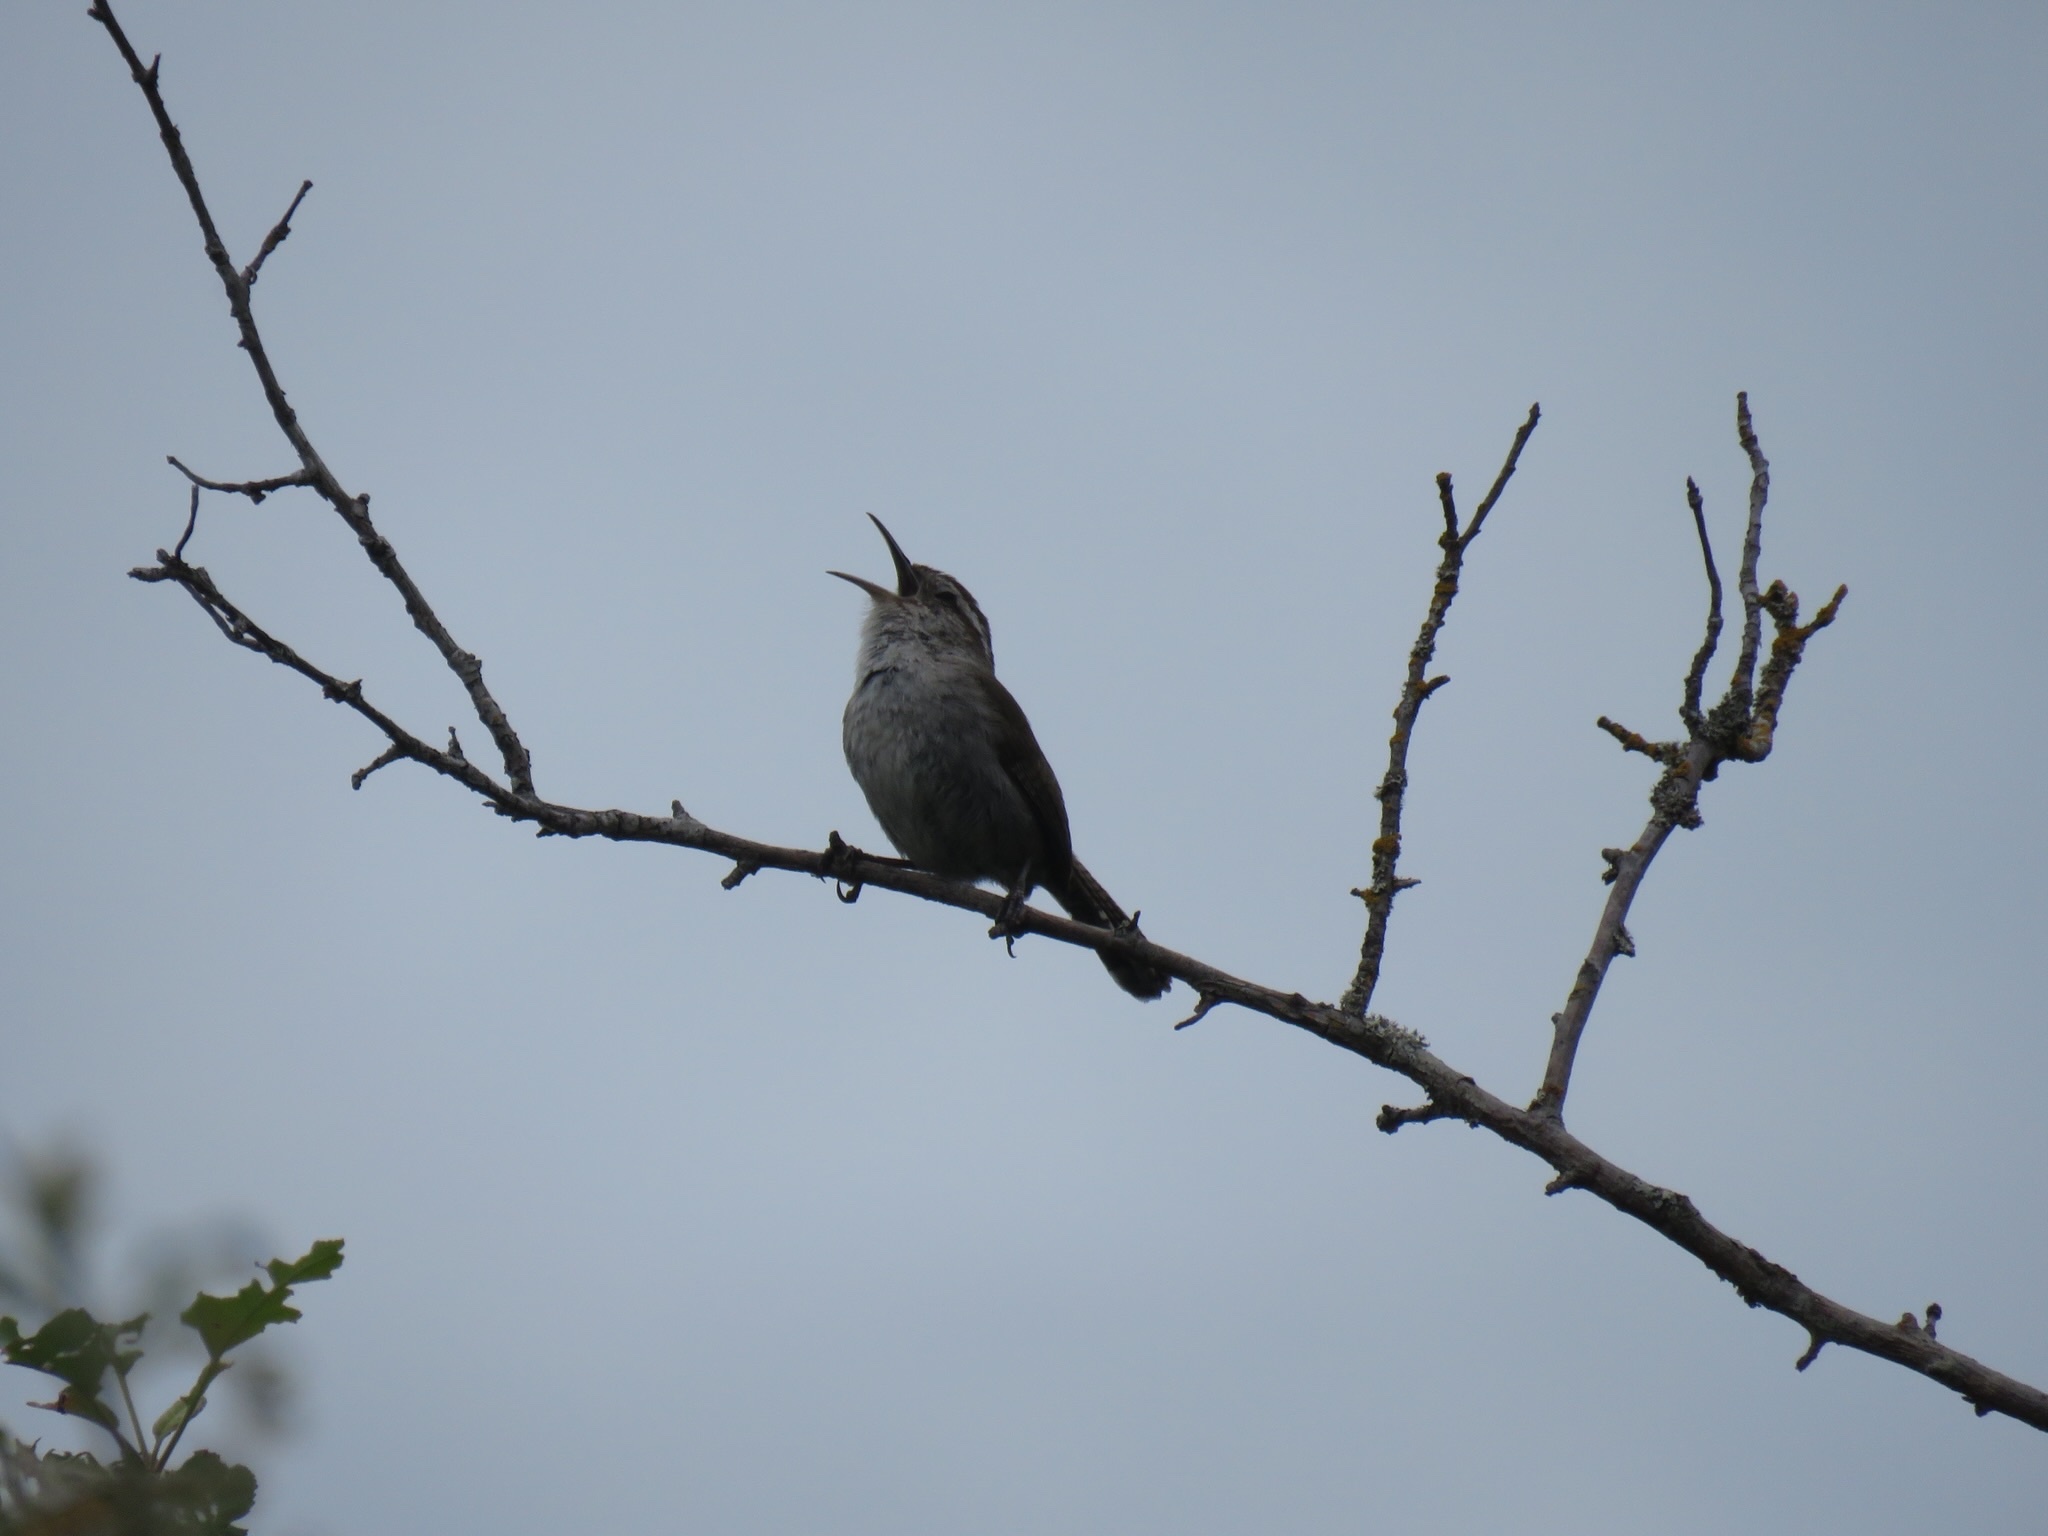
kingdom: Animalia
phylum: Chordata
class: Aves
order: Passeriformes
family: Troglodytidae
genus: Thryomanes
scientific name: Thryomanes bewickii
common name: Bewick's wren
